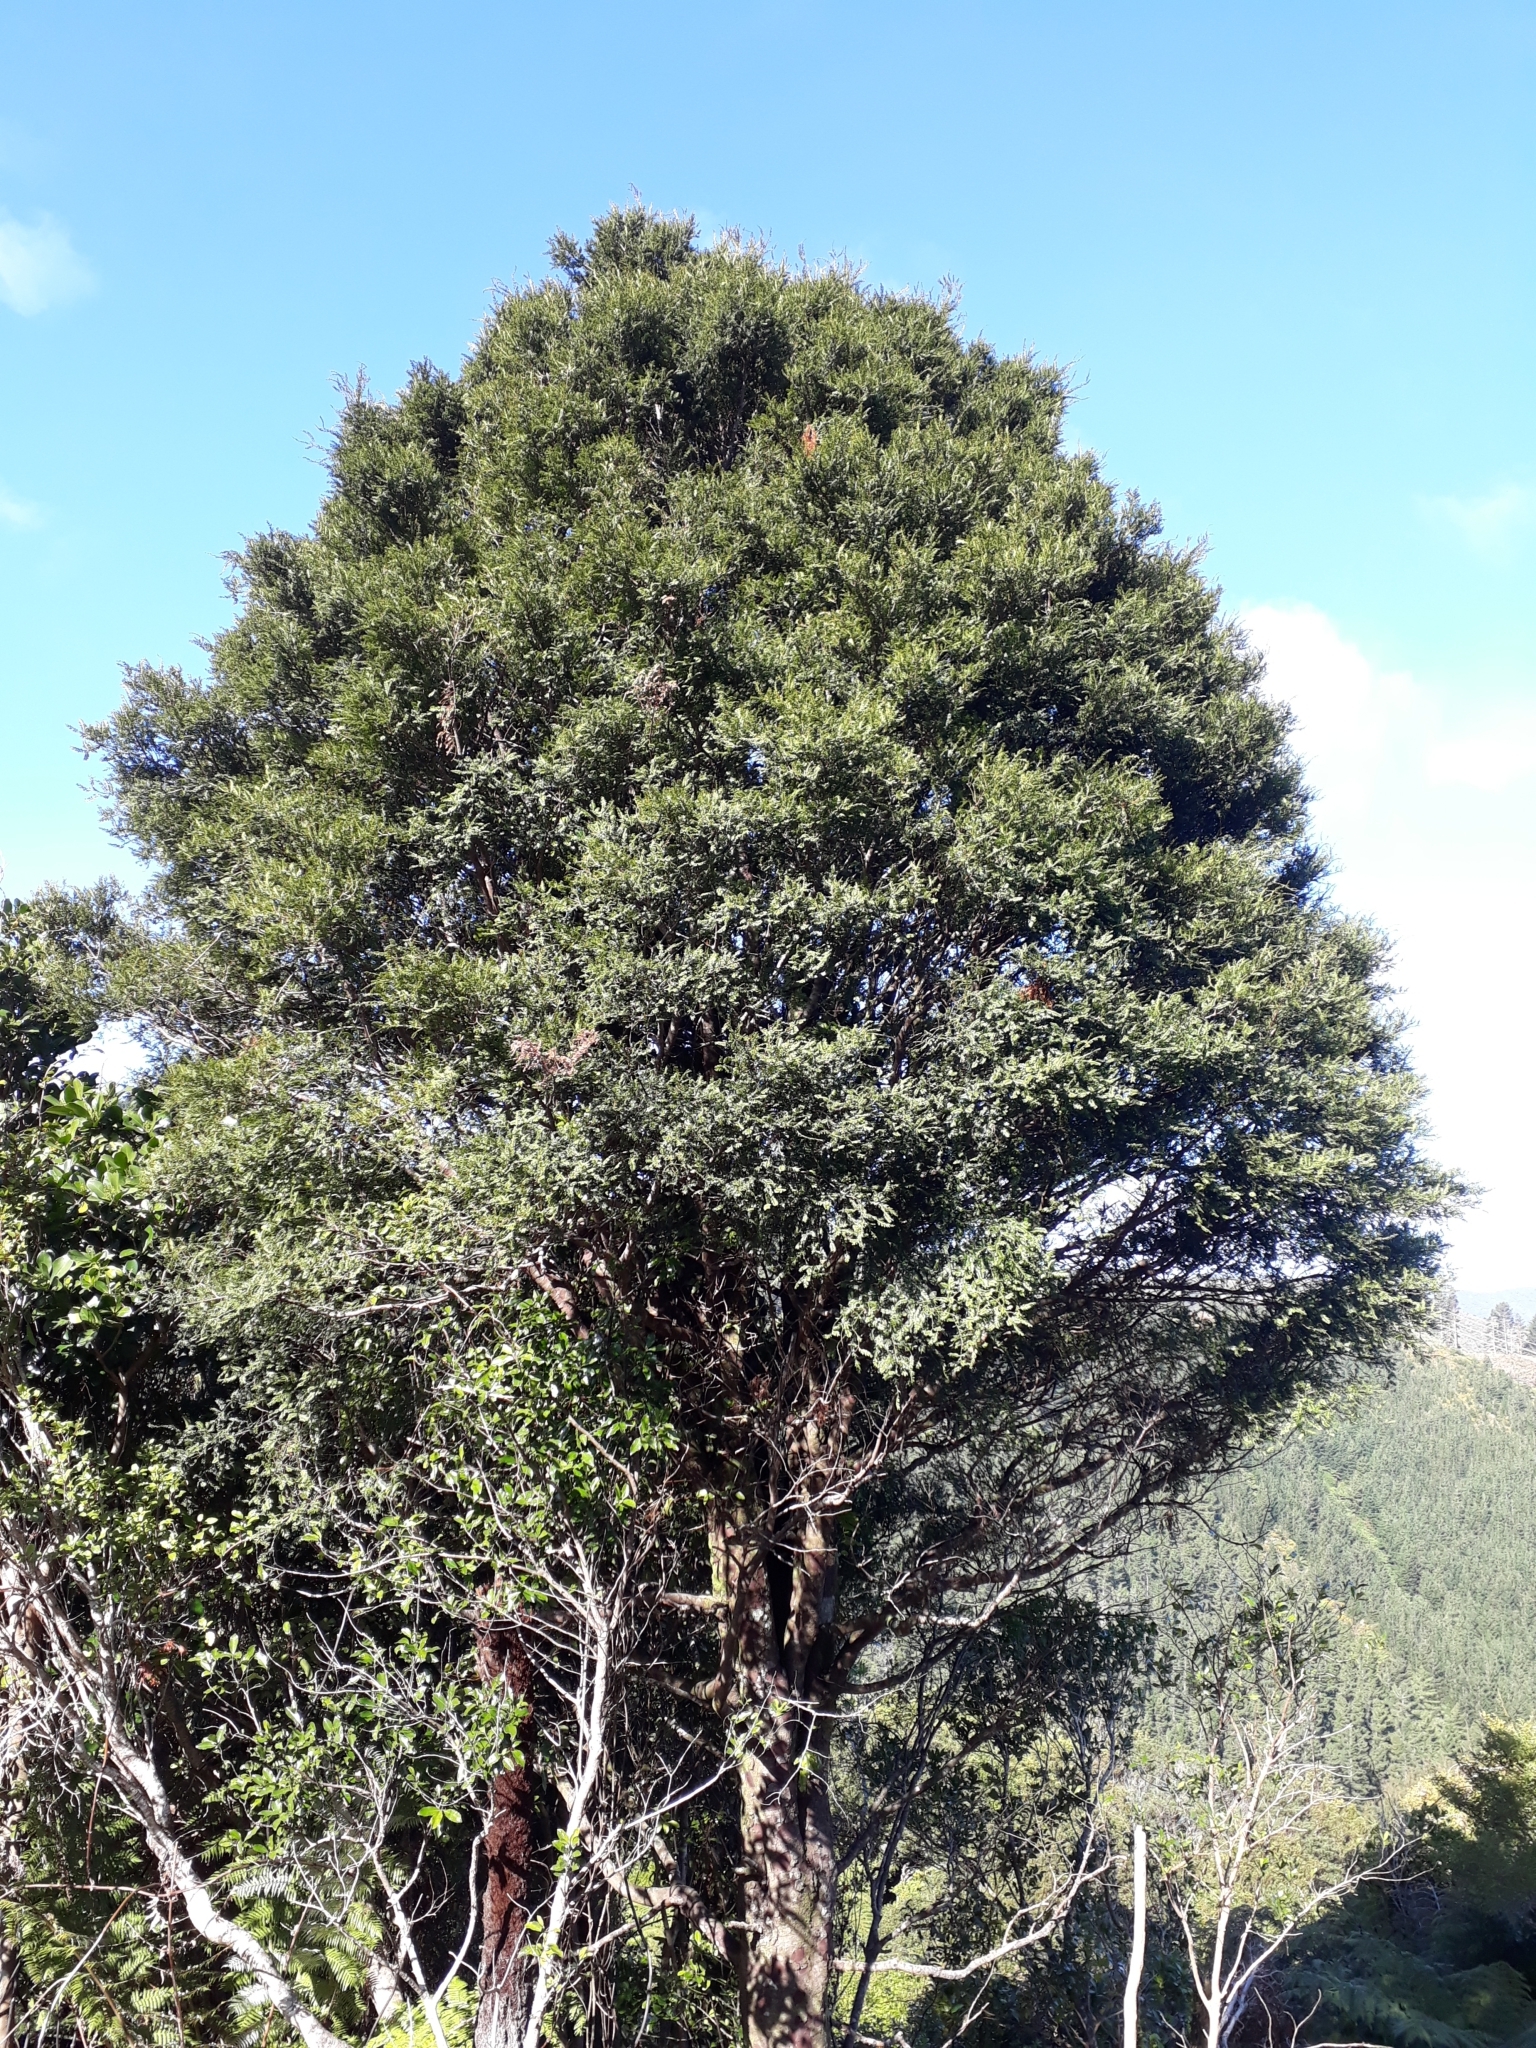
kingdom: Plantae
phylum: Tracheophyta
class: Pinopsida
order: Pinales
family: Podocarpaceae
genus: Prumnopitys
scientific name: Prumnopitys ferruginea
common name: Brown pine
